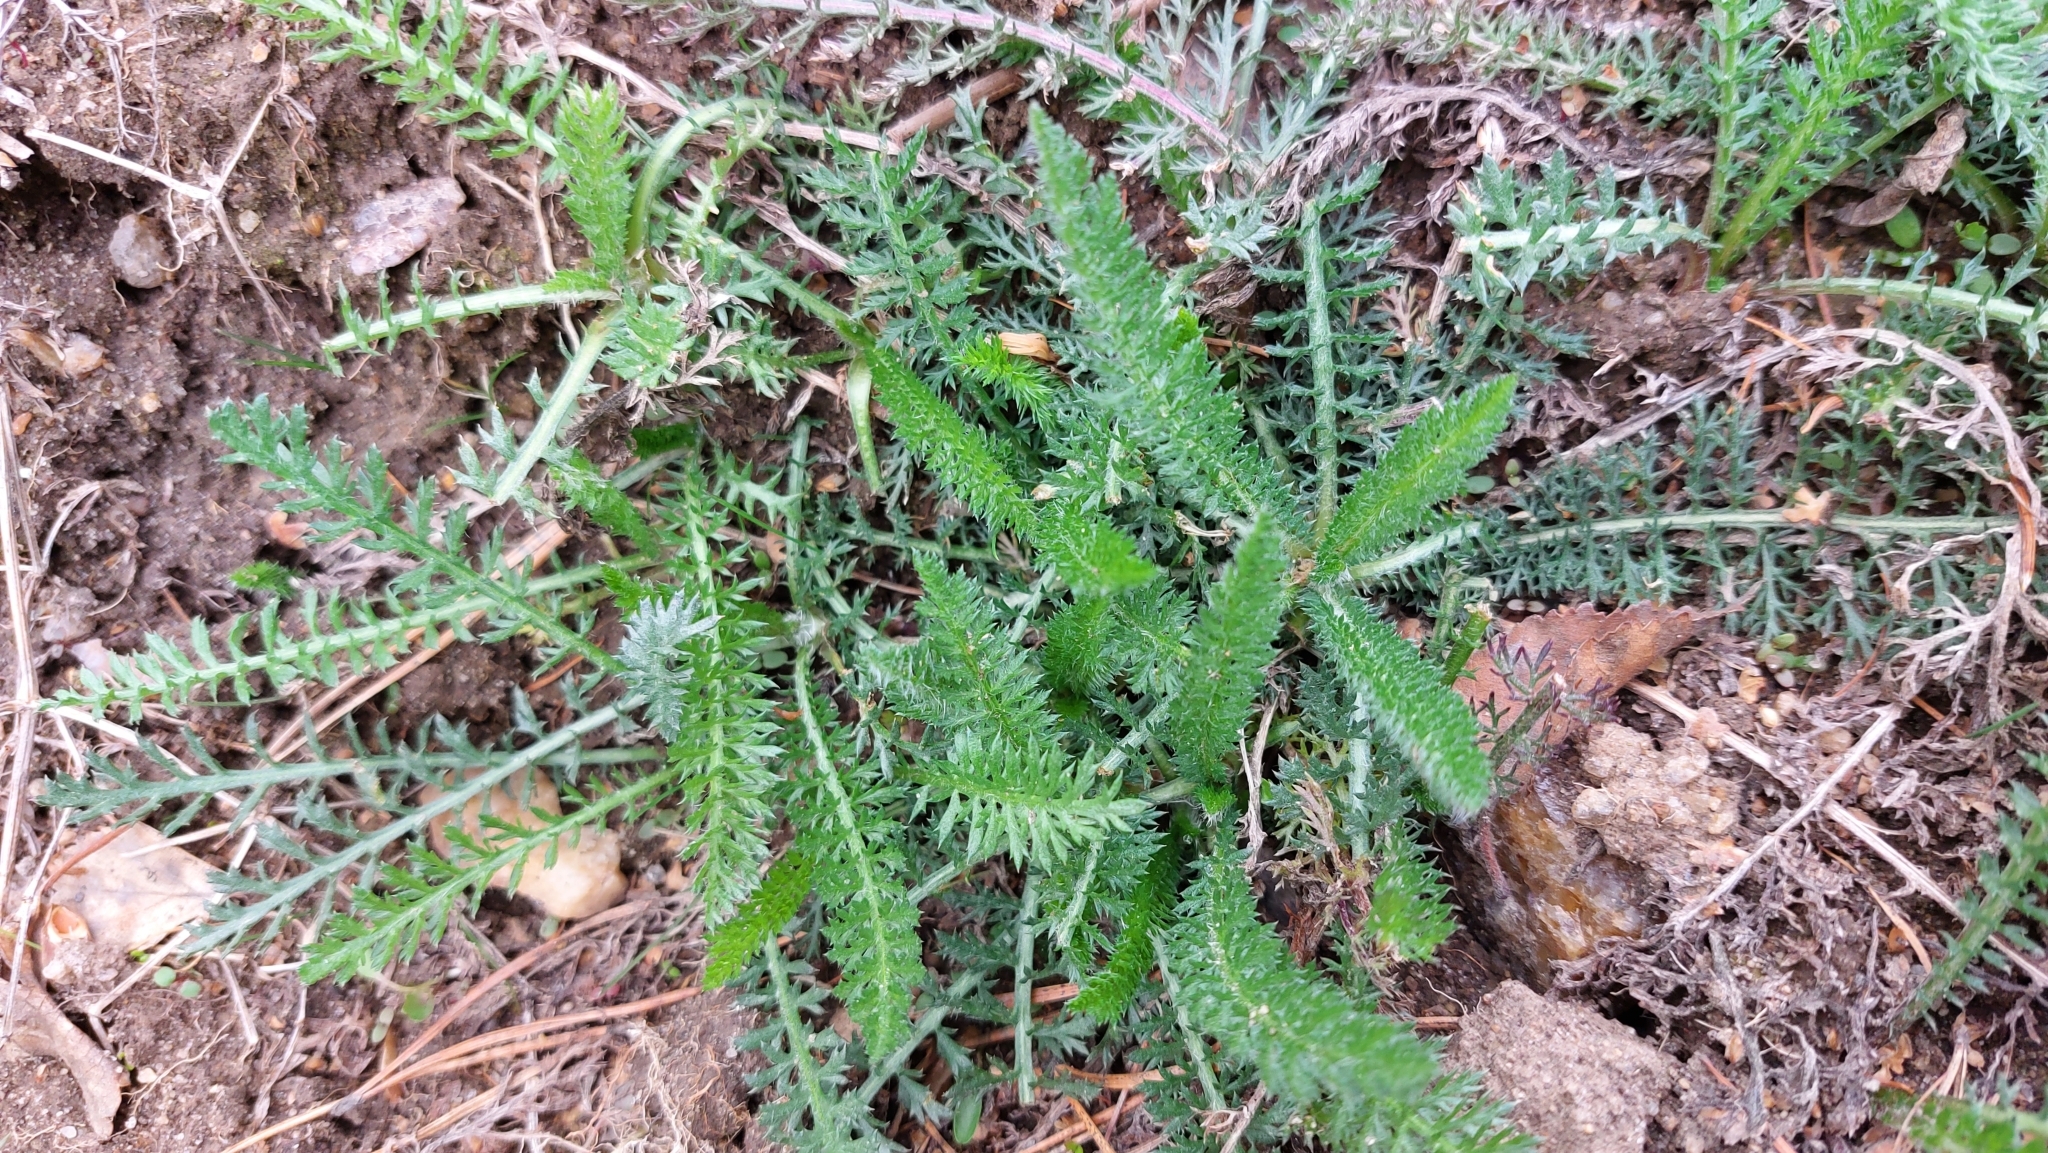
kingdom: Plantae
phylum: Tracheophyta
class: Magnoliopsida
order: Asterales
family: Asteraceae
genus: Achillea
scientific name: Achillea millefolium
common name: Yarrow
